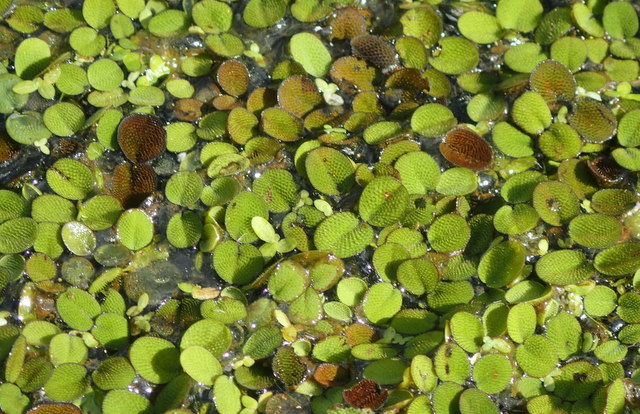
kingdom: Plantae
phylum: Tracheophyta
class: Polypodiopsida
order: Salviniales
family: Salviniaceae
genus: Salvinia
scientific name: Salvinia minima
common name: Water spangles
